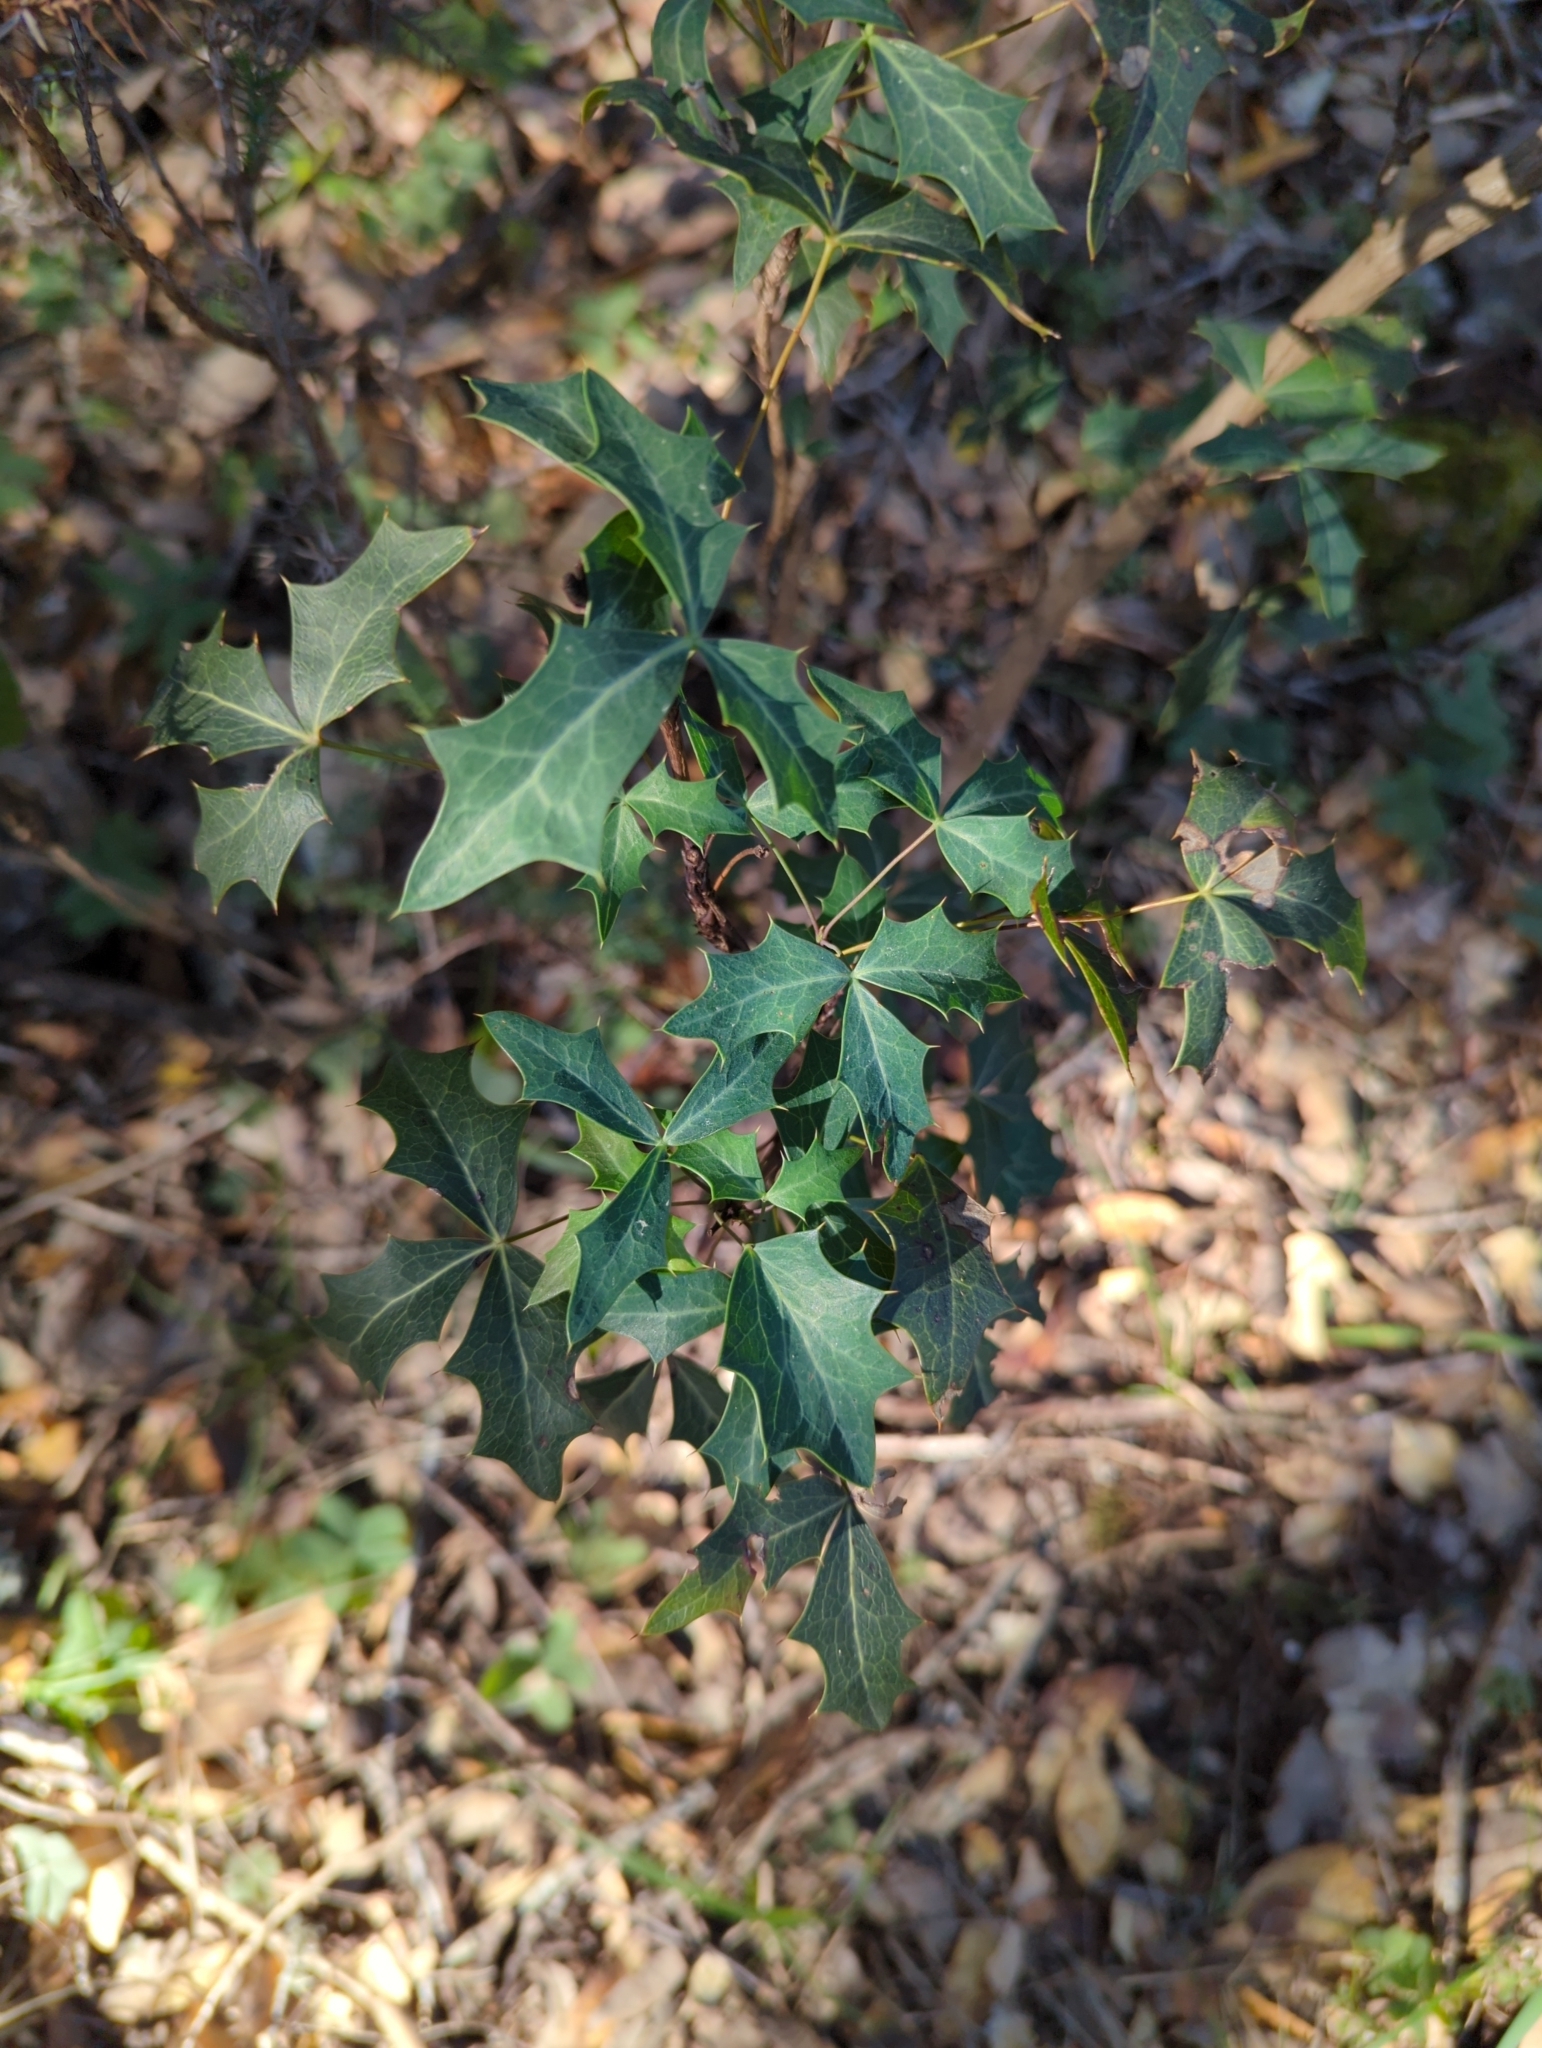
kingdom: Plantae
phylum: Tracheophyta
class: Magnoliopsida
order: Ranunculales
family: Berberidaceae
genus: Alloberberis
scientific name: Alloberberis trifoliolata
